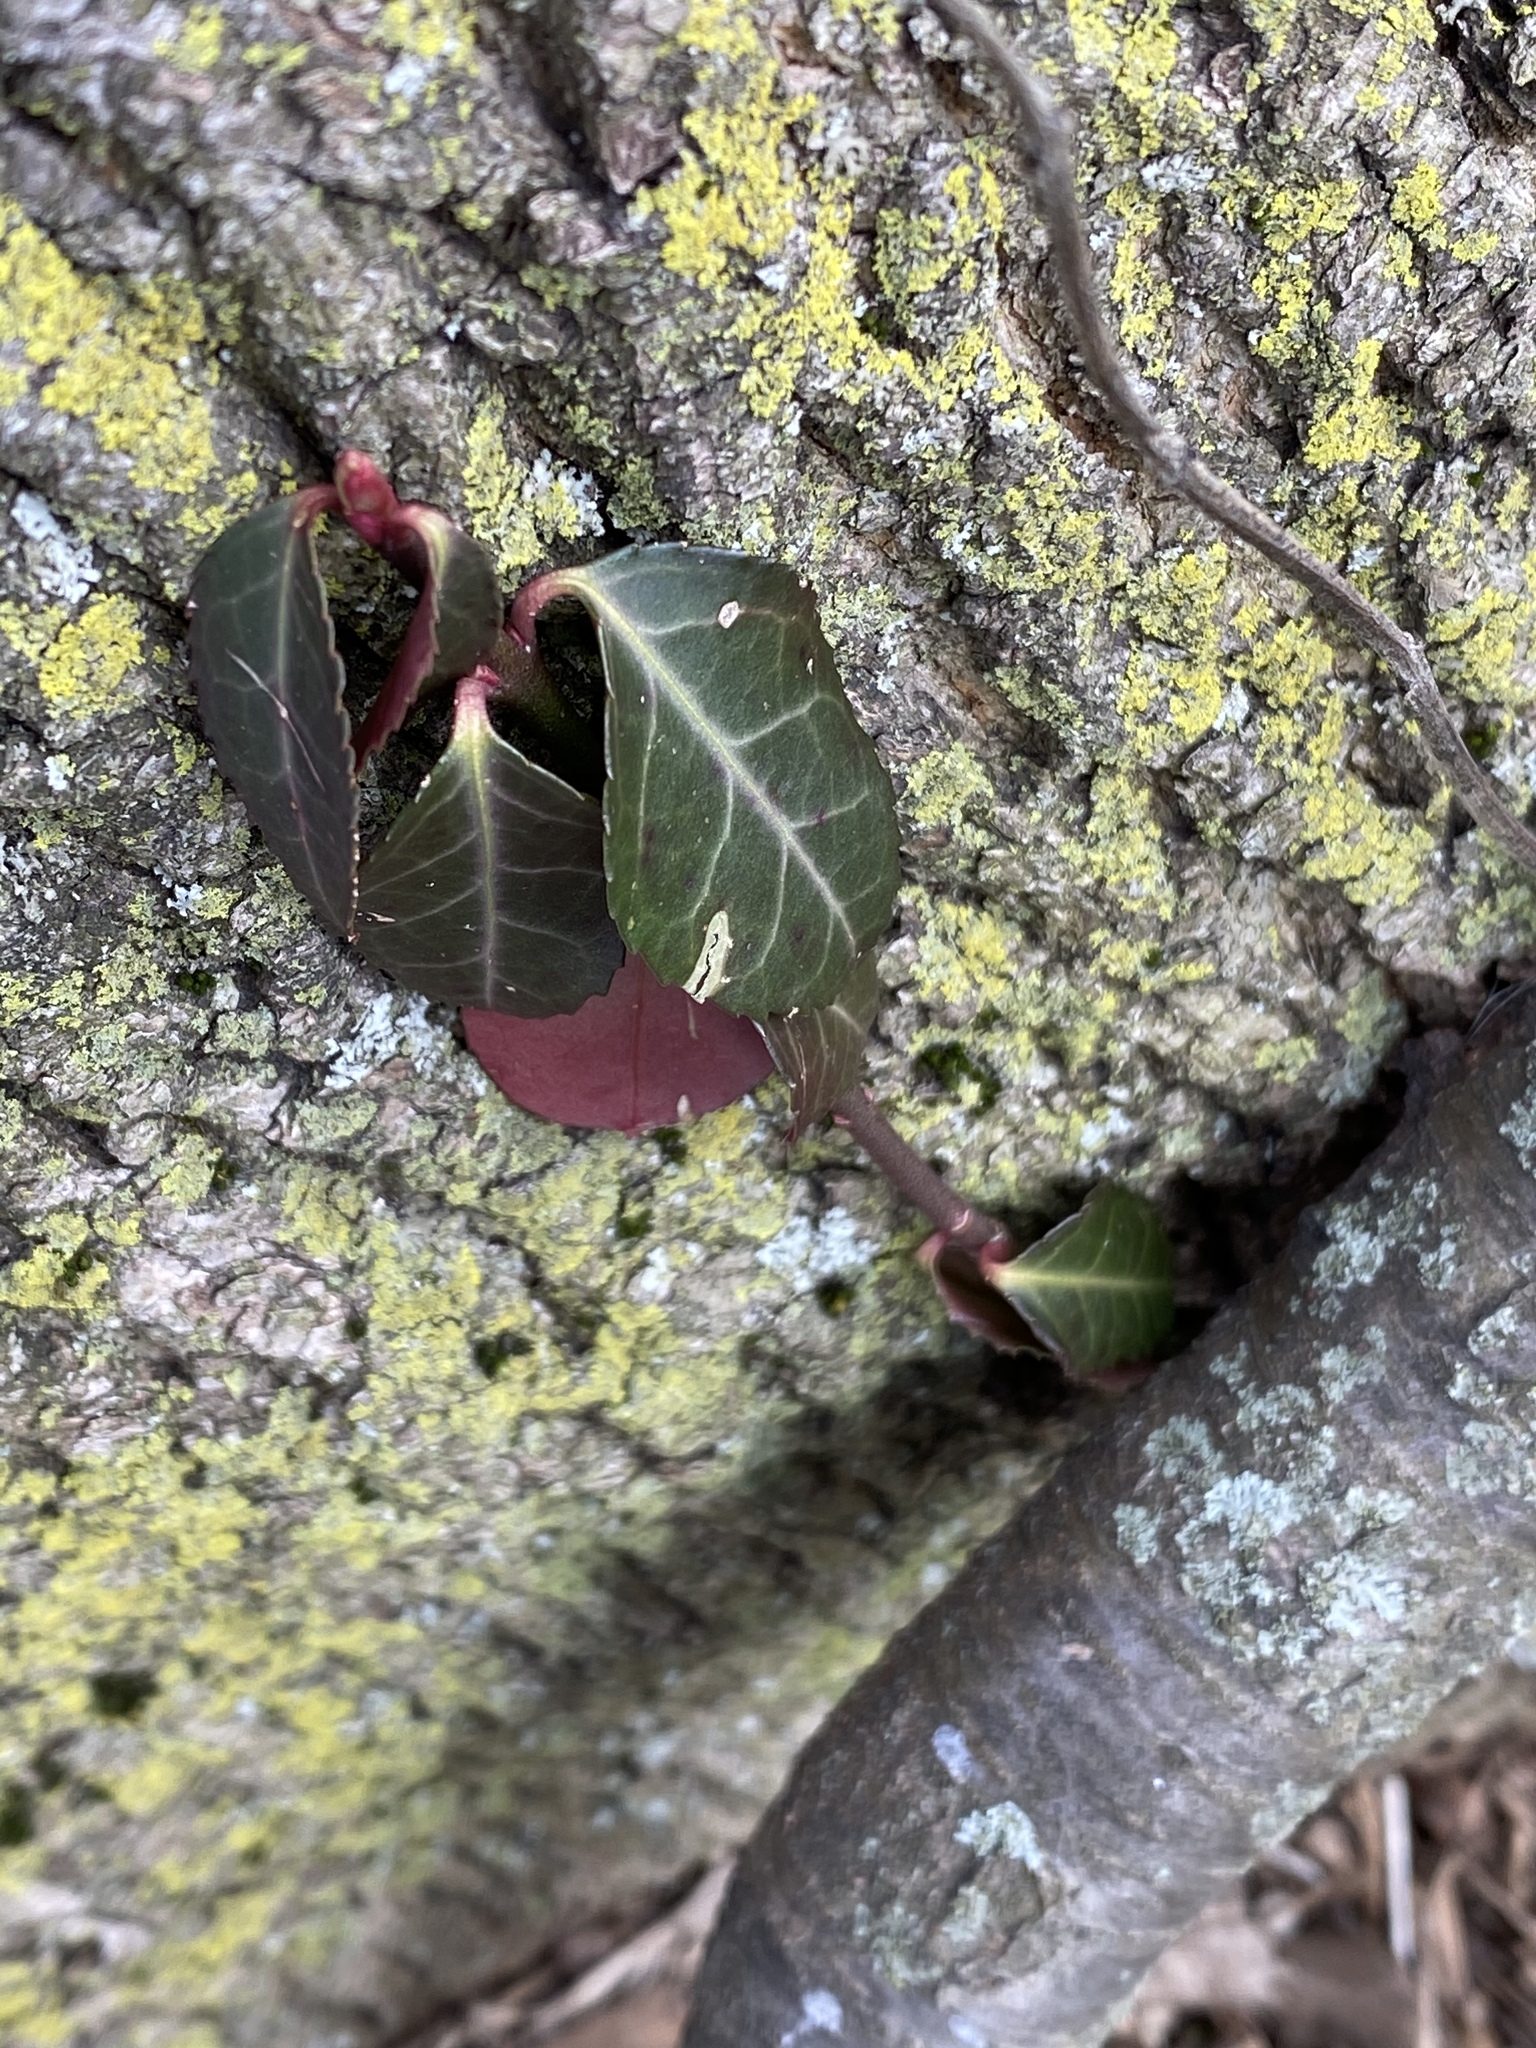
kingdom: Plantae
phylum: Tracheophyta
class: Magnoliopsida
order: Celastrales
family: Celastraceae
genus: Euonymus
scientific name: Euonymus fortunei
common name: Climbing euonymus
